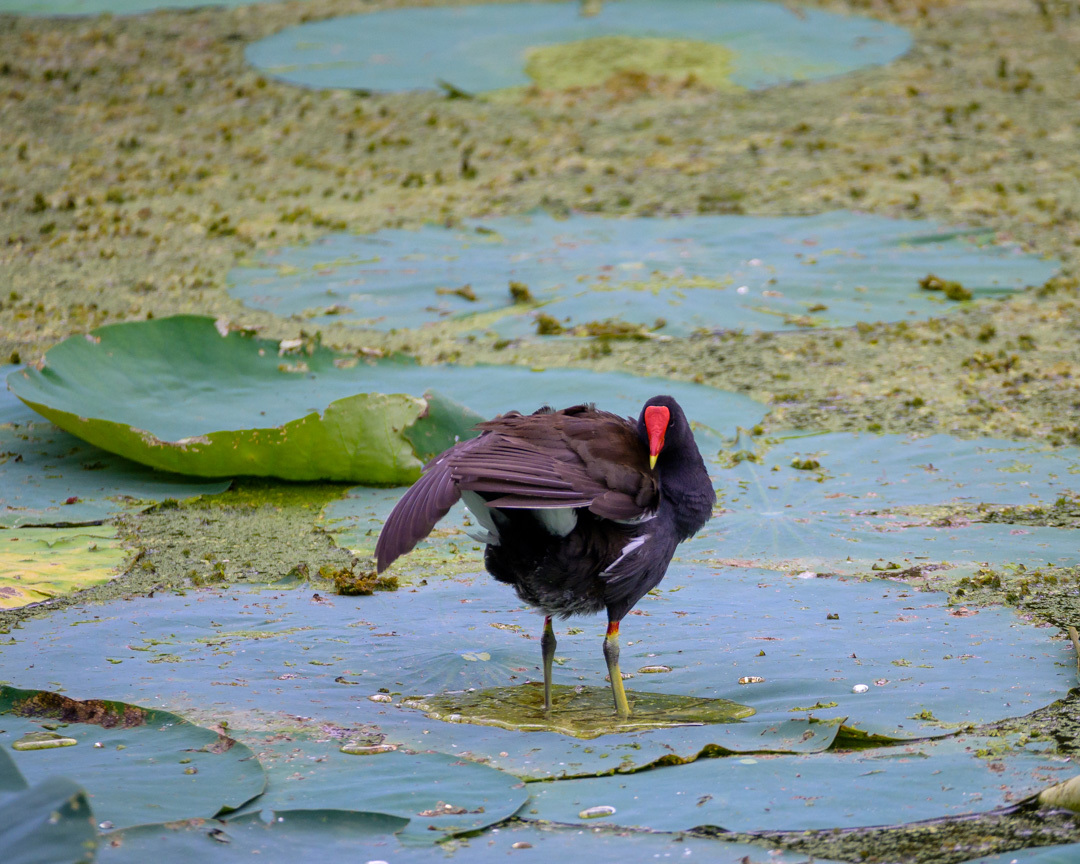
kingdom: Animalia
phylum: Chordata
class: Aves
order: Gruiformes
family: Rallidae
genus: Gallinula
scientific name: Gallinula chloropus
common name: Common moorhen
